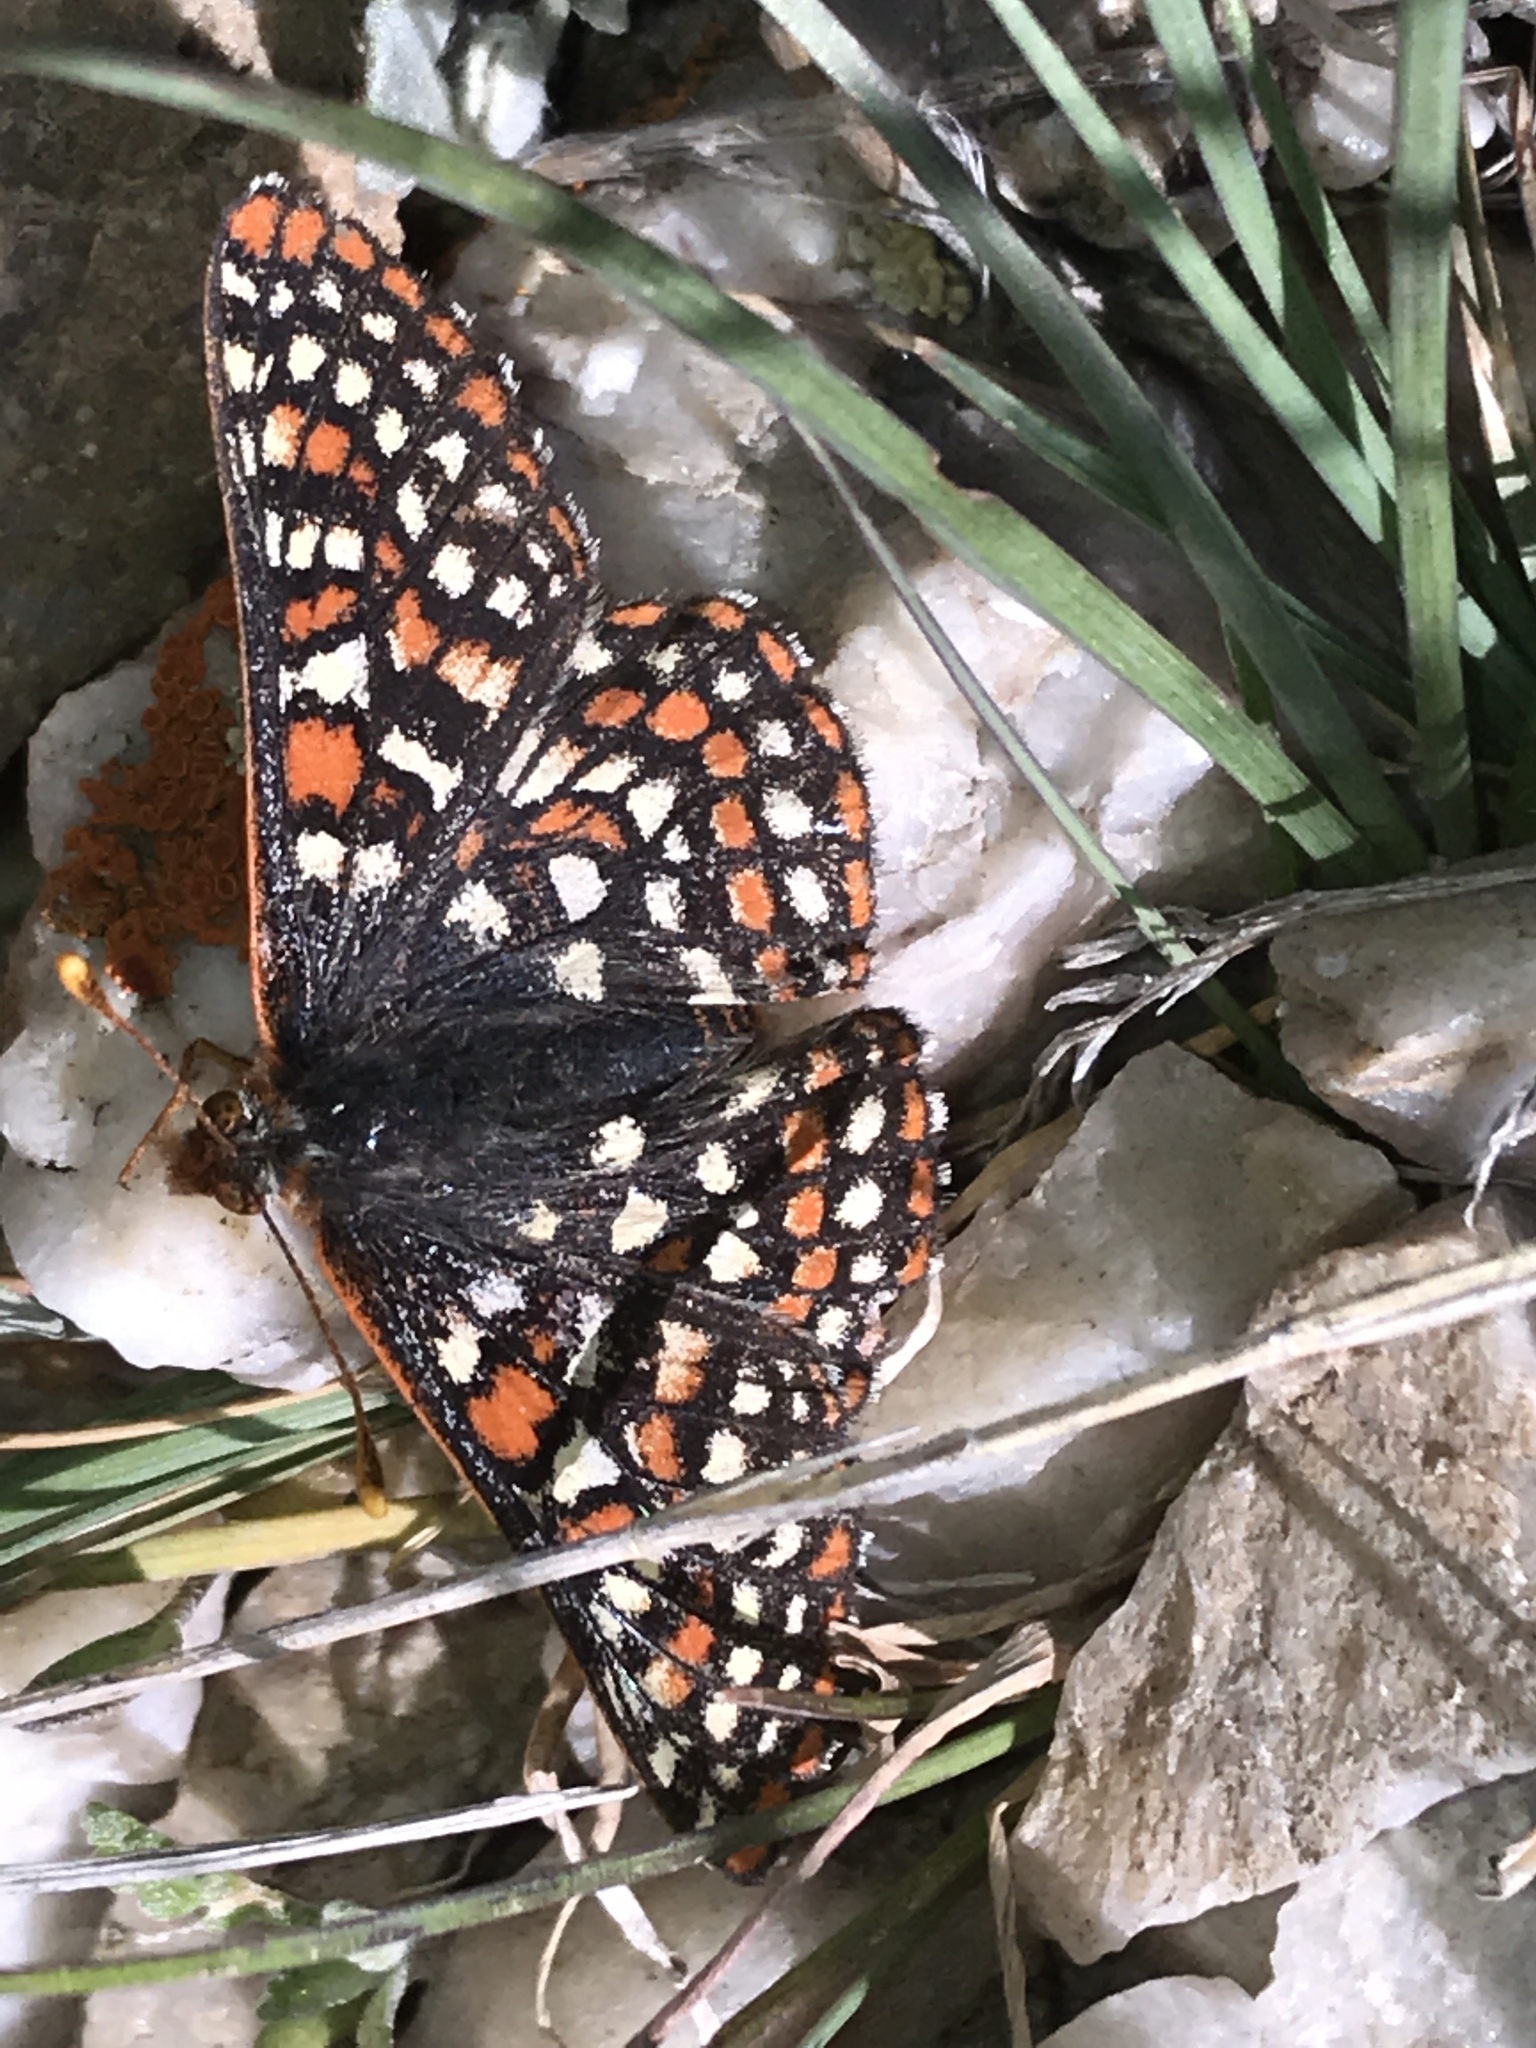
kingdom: Animalia
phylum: Arthropoda
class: Insecta
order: Lepidoptera
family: Nymphalidae
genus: Occidryas
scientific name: Occidryas anicia
